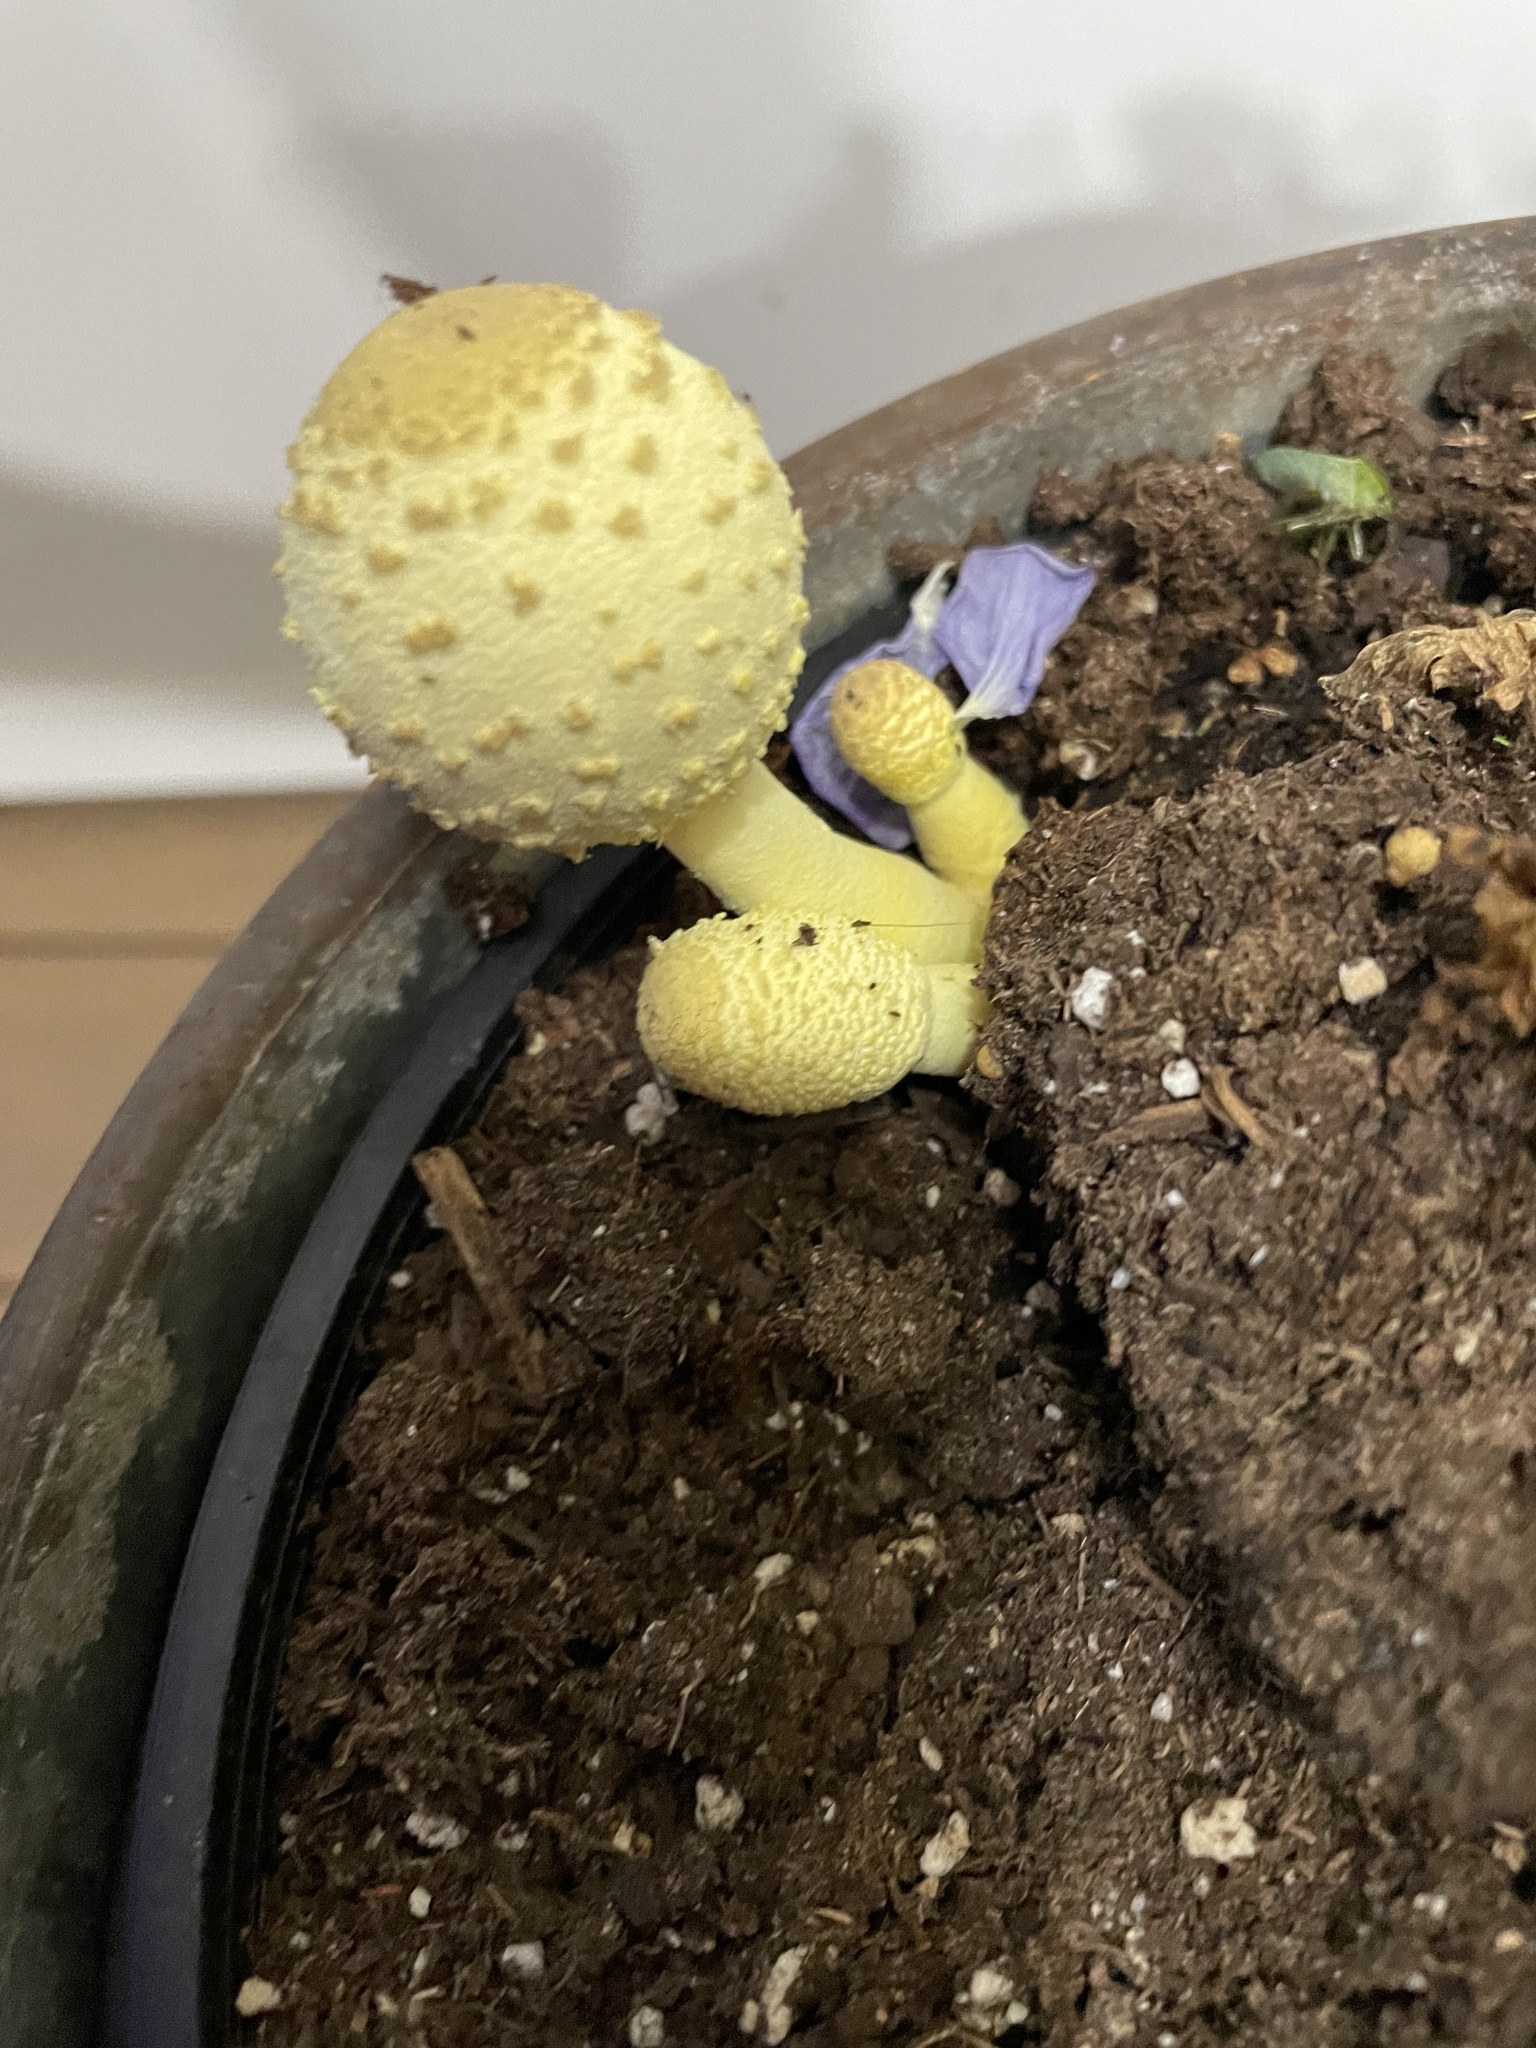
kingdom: Fungi
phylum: Basidiomycota
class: Agaricomycetes
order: Agaricales
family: Agaricaceae
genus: Leucocoprinus
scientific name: Leucocoprinus birnbaumii
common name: Plantpot dapperling
